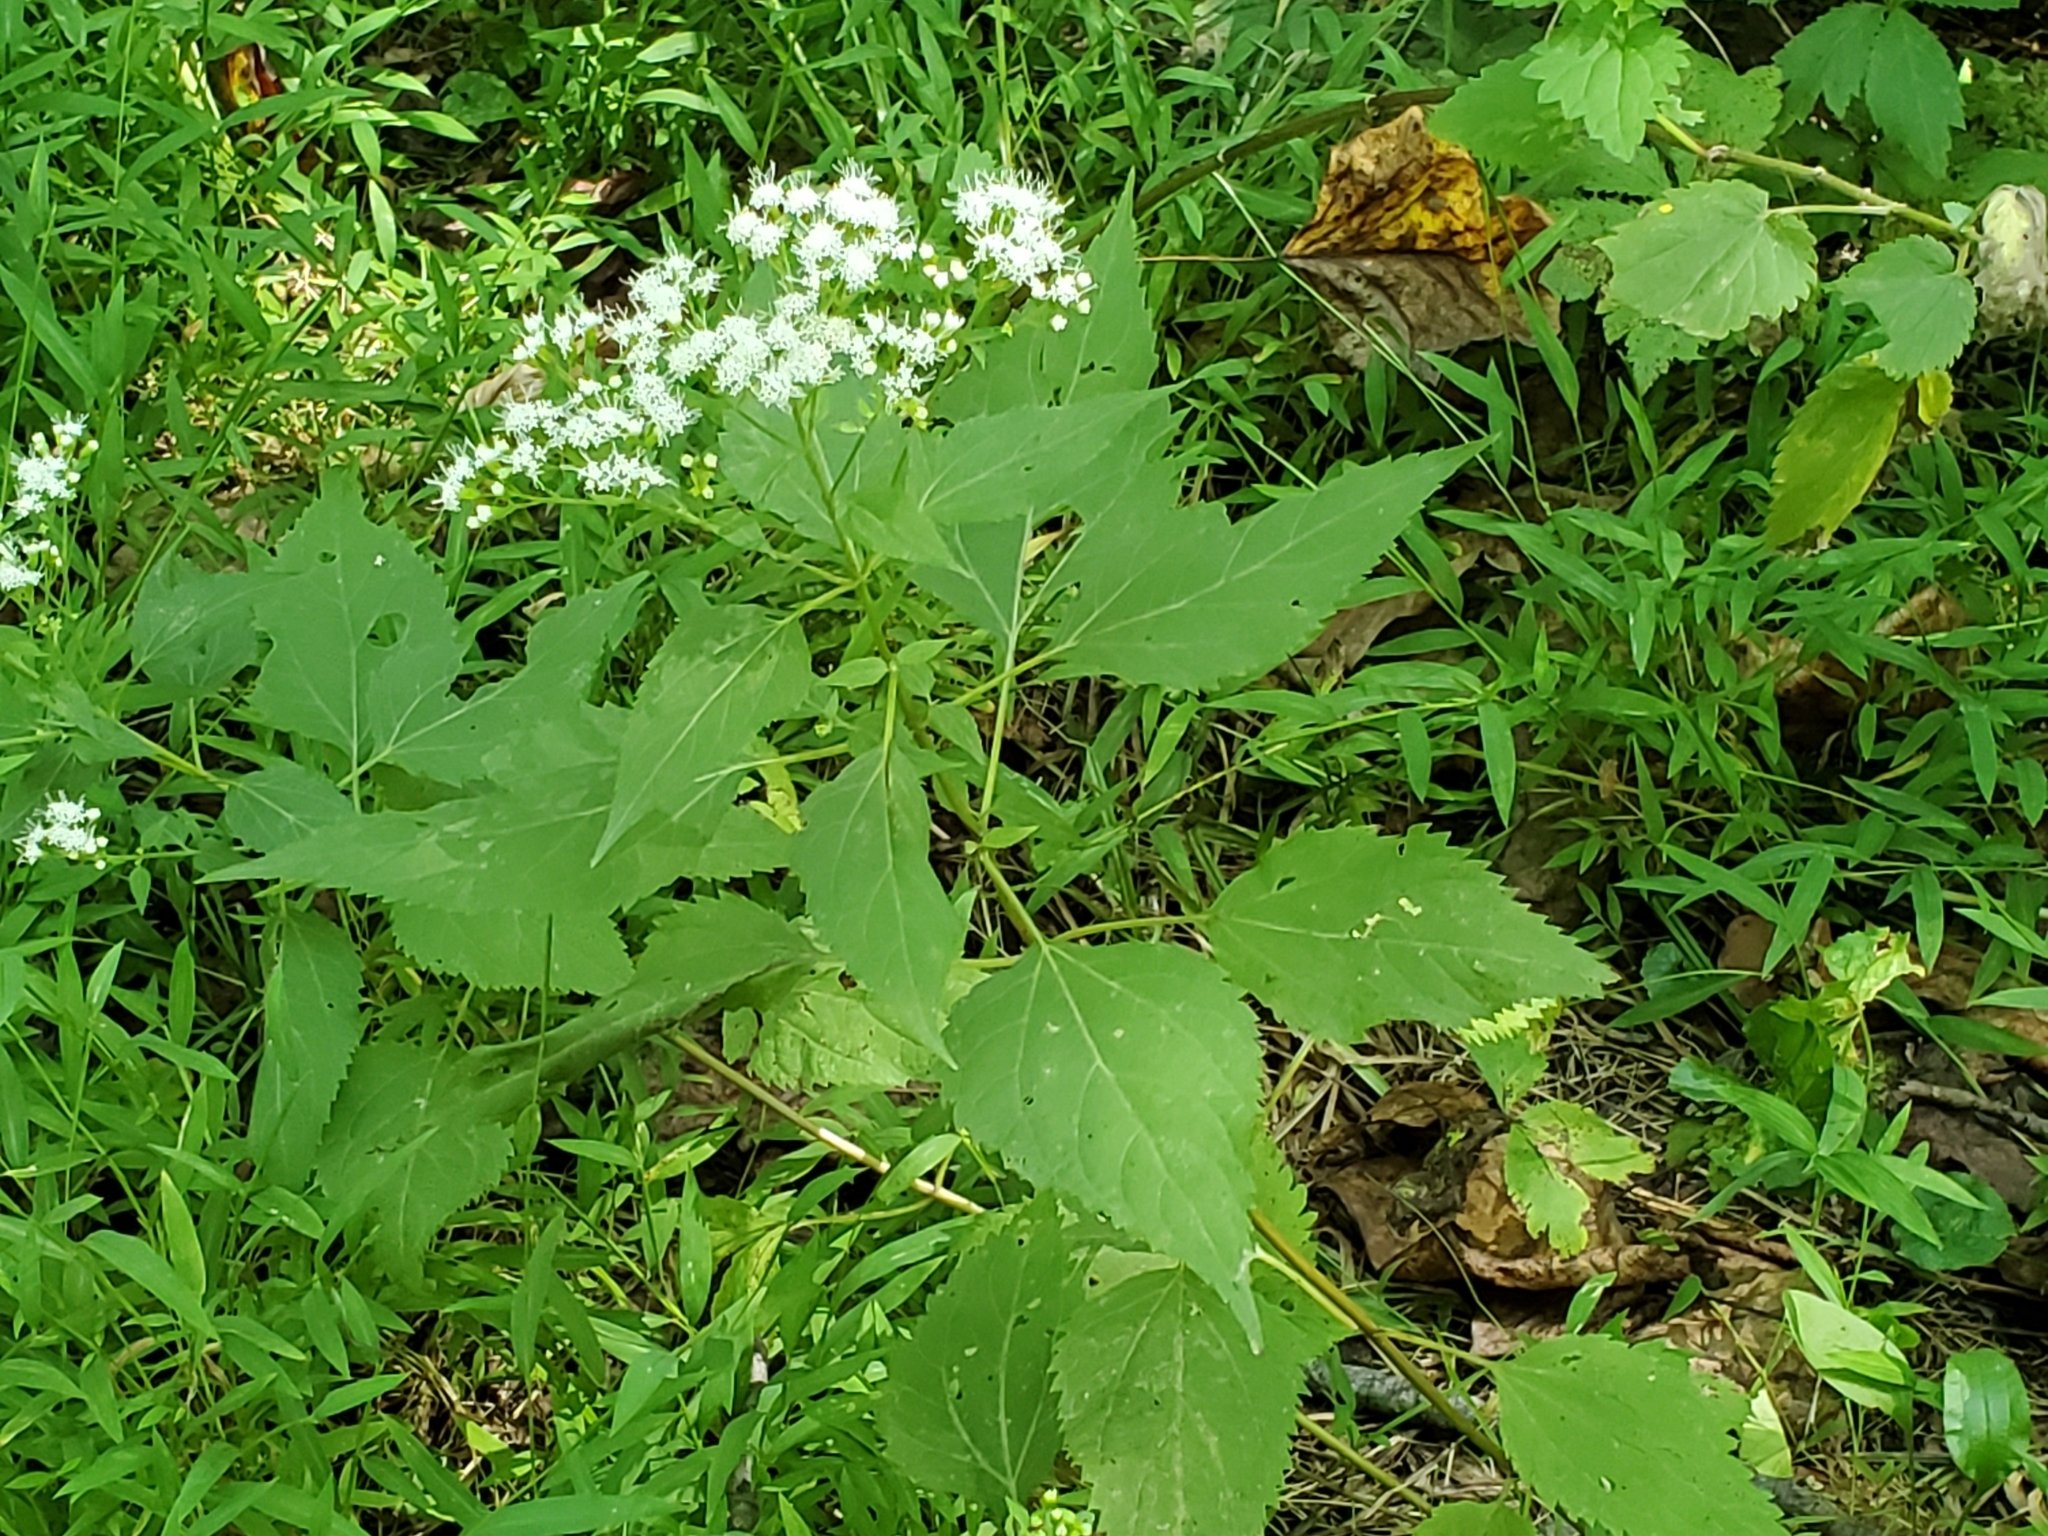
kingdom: Plantae
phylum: Tracheophyta
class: Magnoliopsida
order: Asterales
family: Asteraceae
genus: Ageratina
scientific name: Ageratina altissima
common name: White snakeroot
